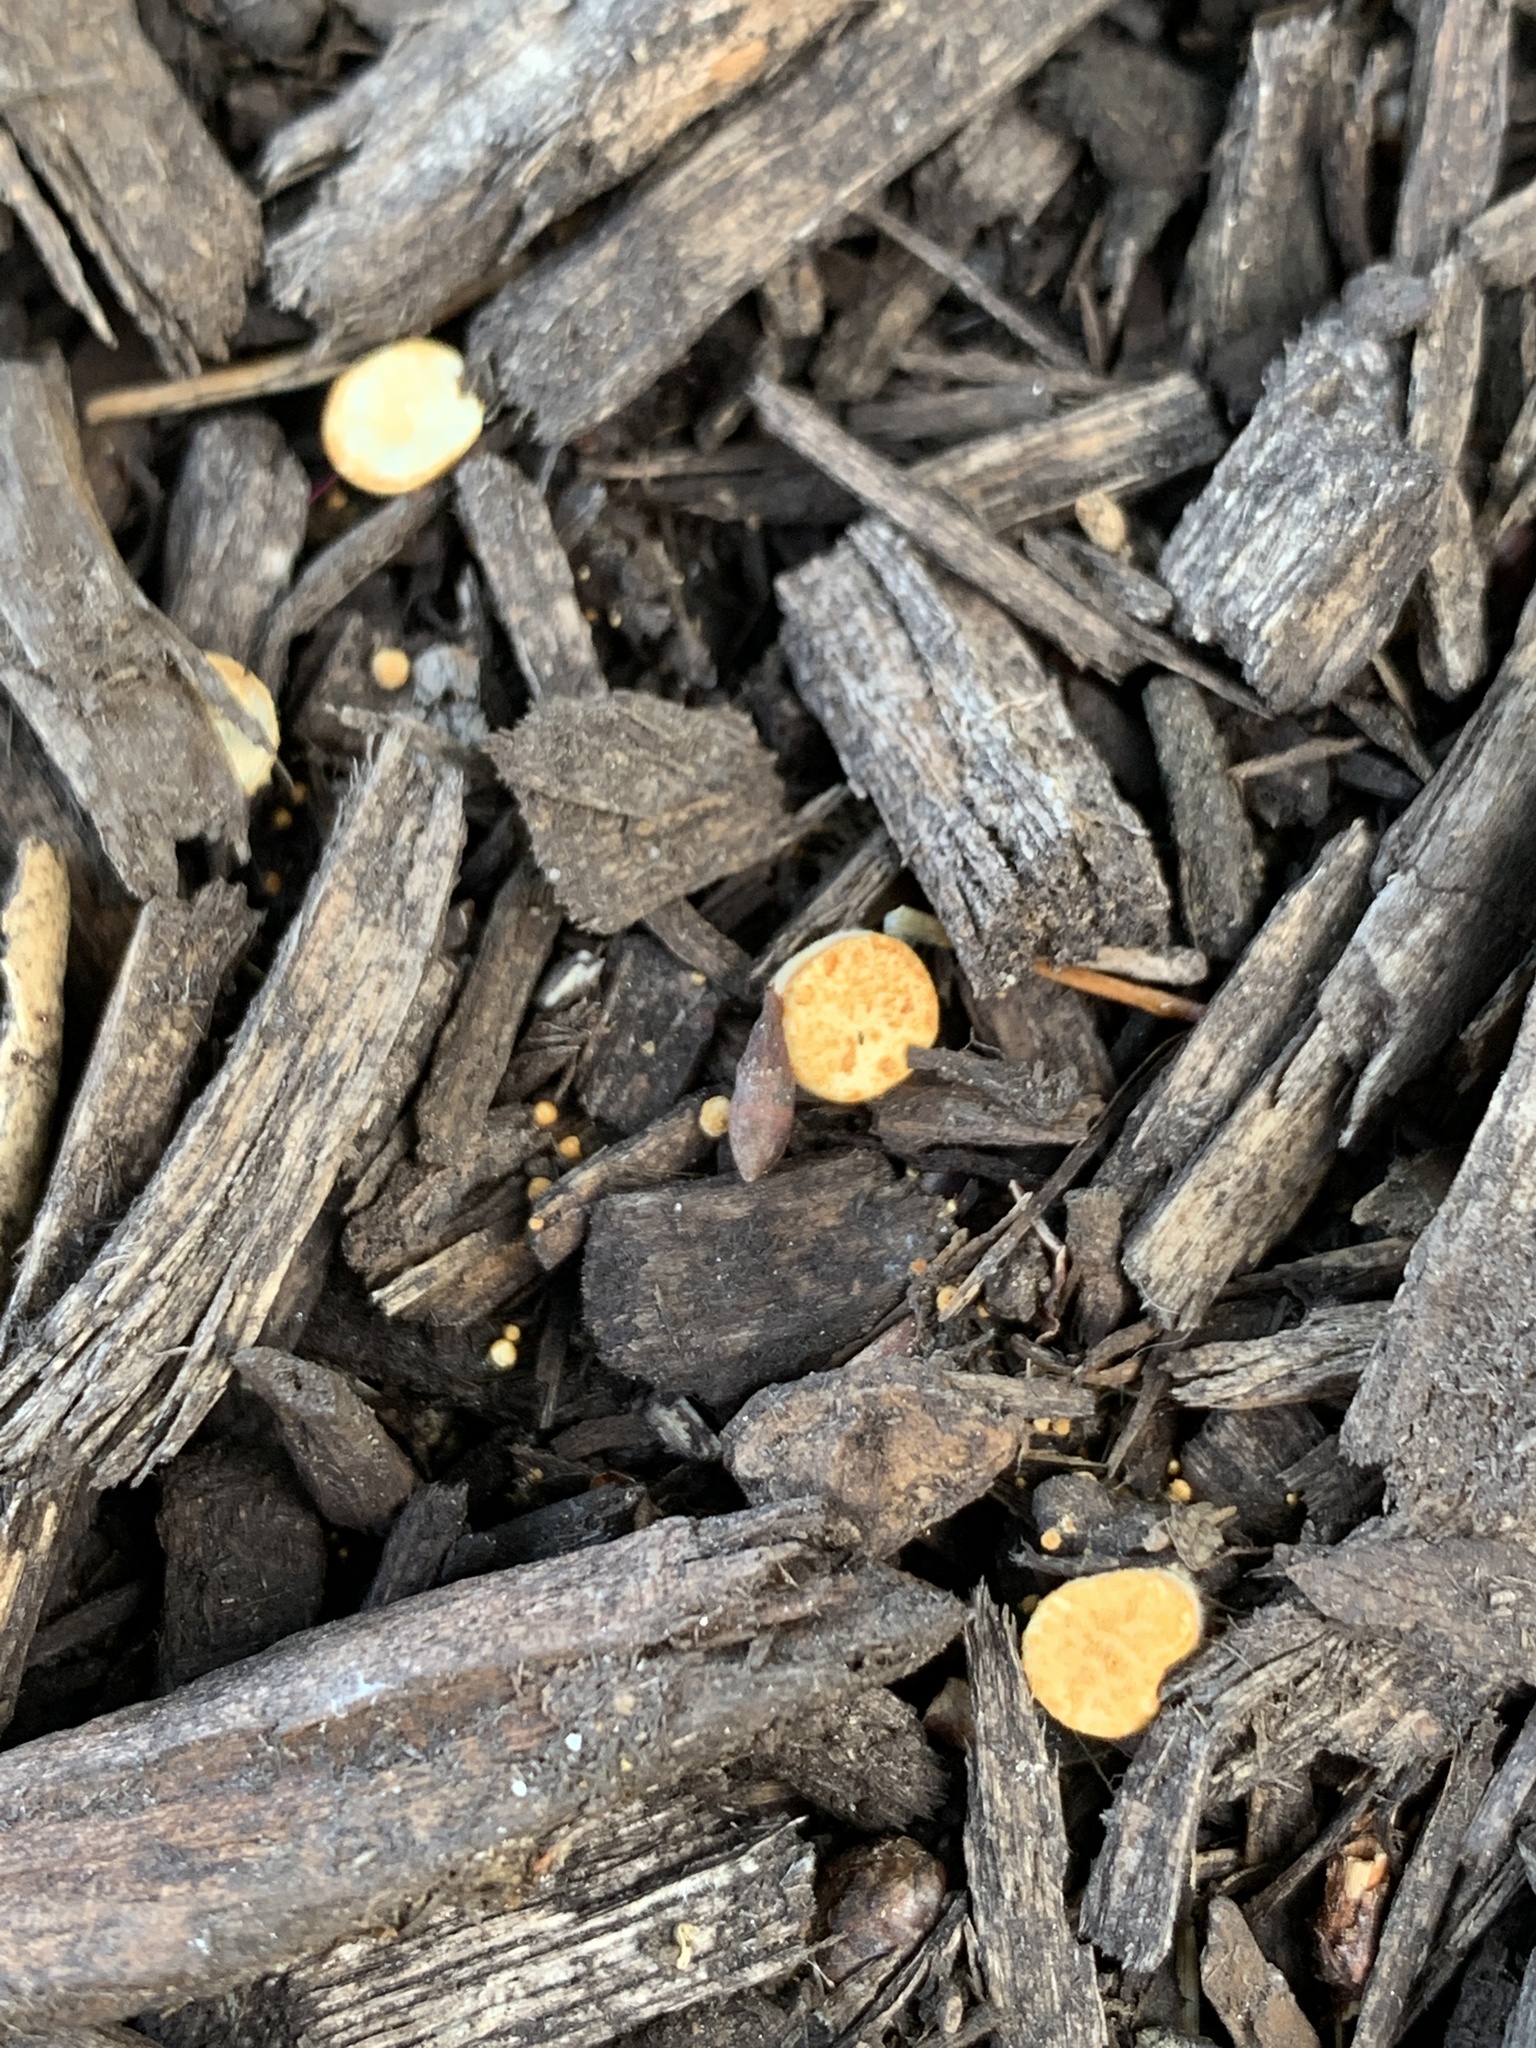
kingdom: Fungi
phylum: Basidiomycota
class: Agaricomycetes
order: Agaricales
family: Nidulariaceae
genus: Crucibulum
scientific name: Crucibulum laeve
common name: Common bird's nest
